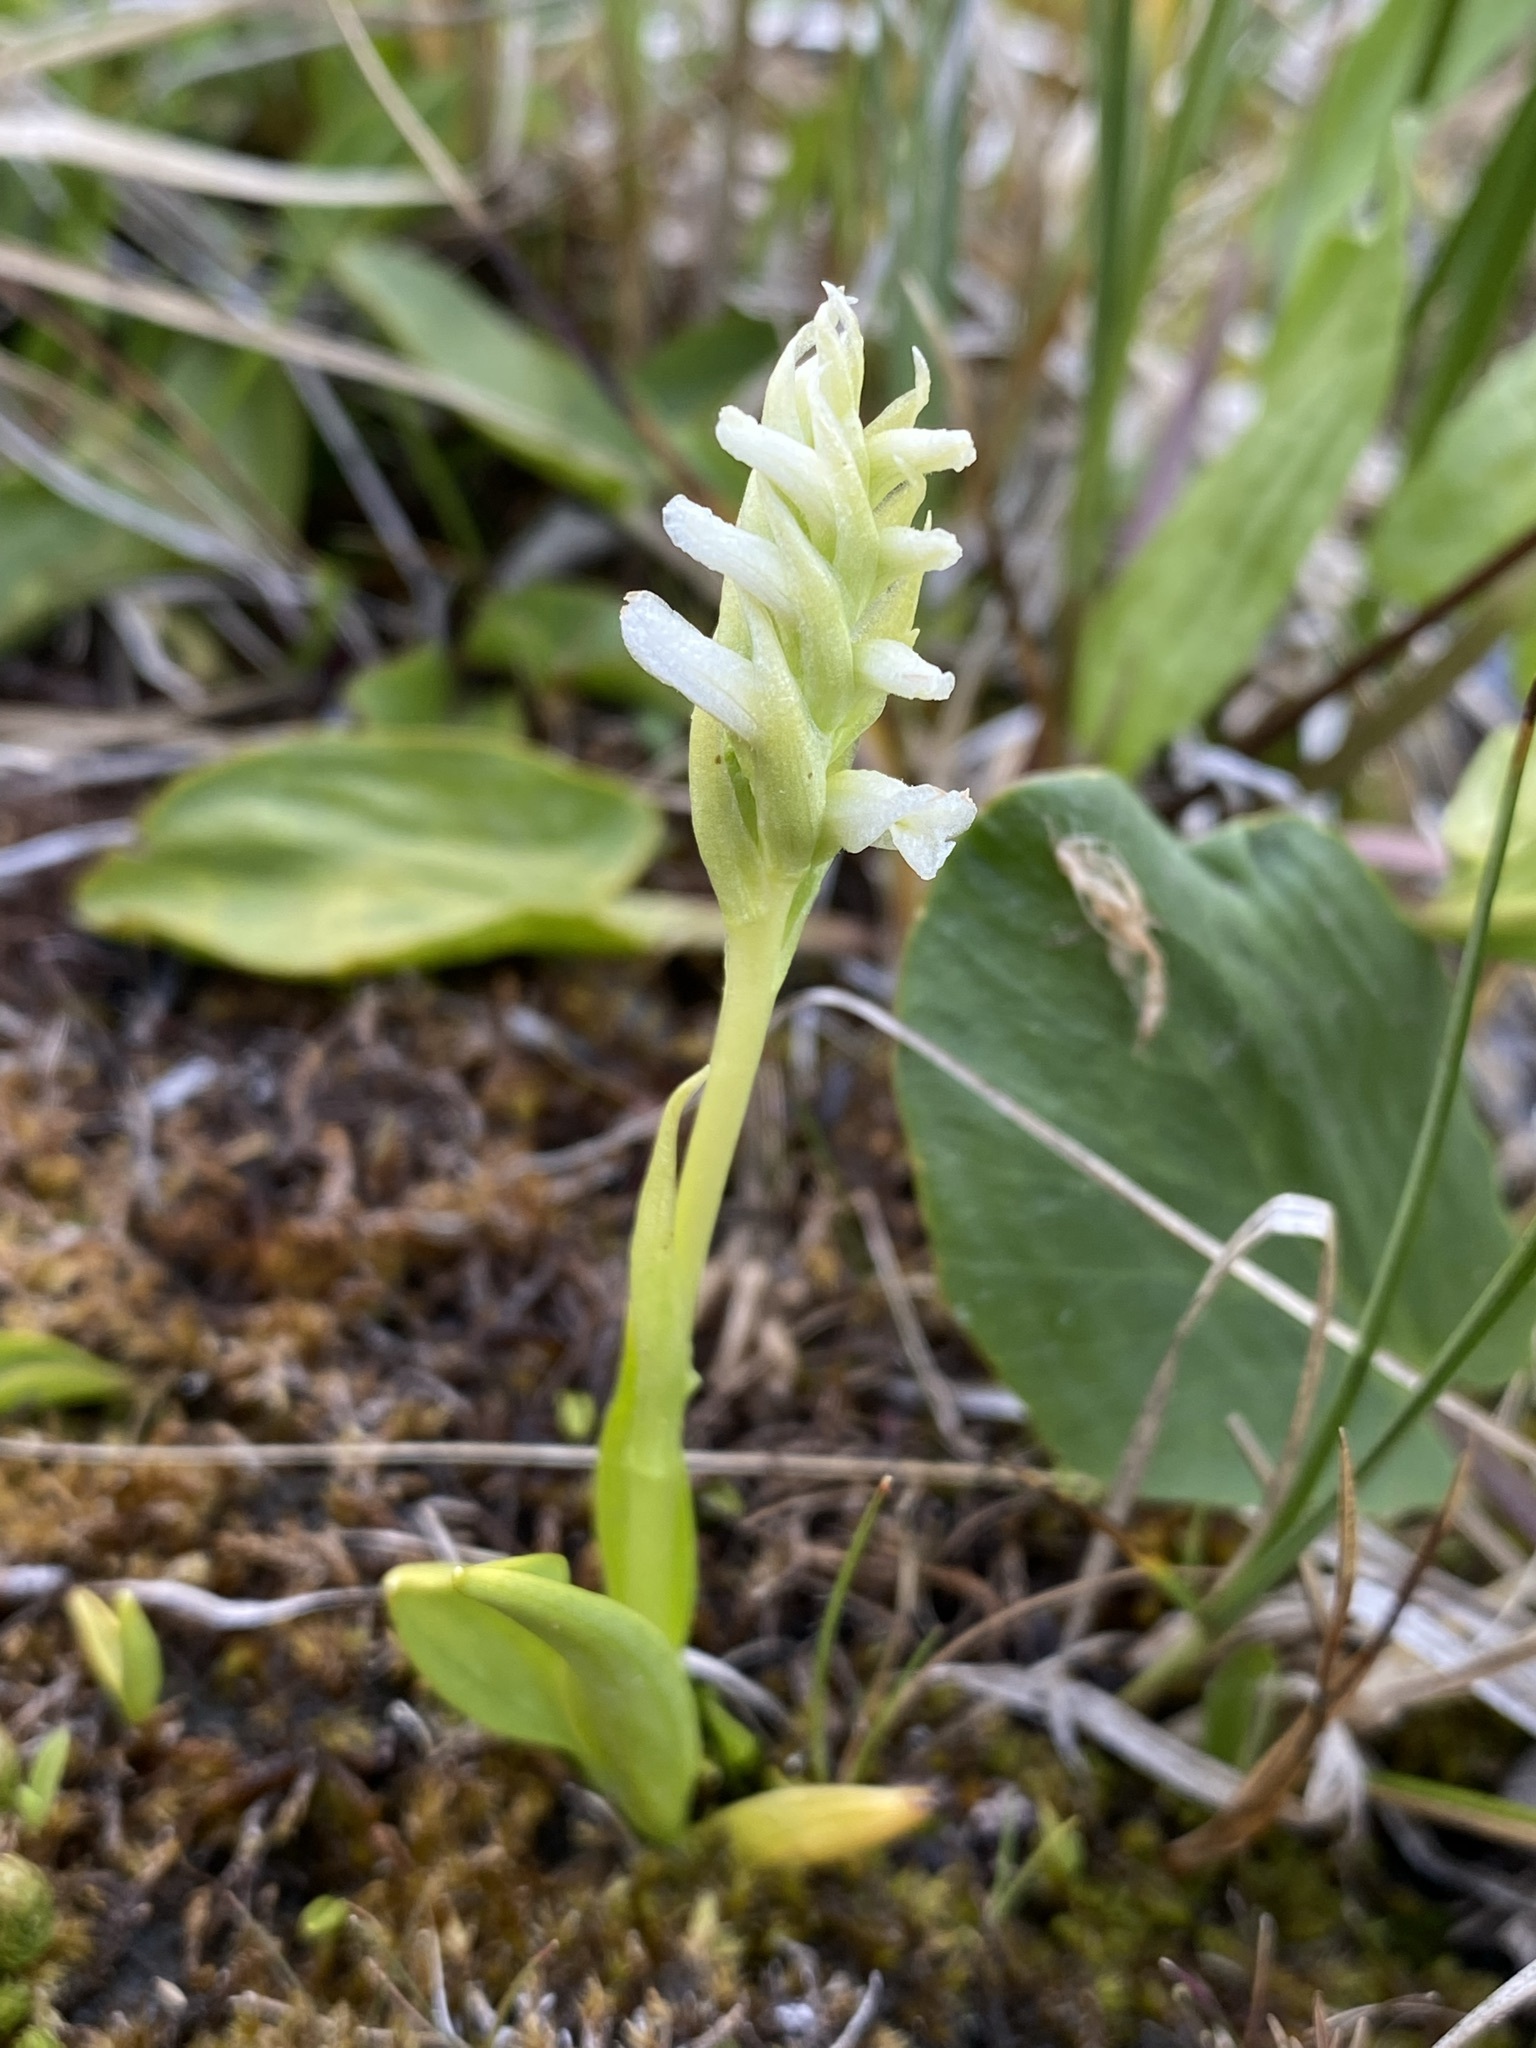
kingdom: Plantae
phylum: Tracheophyta
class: Liliopsida
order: Asparagales
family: Orchidaceae
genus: Spiranthes
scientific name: Spiranthes romanzoffiana
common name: Irish lady's-tresses
